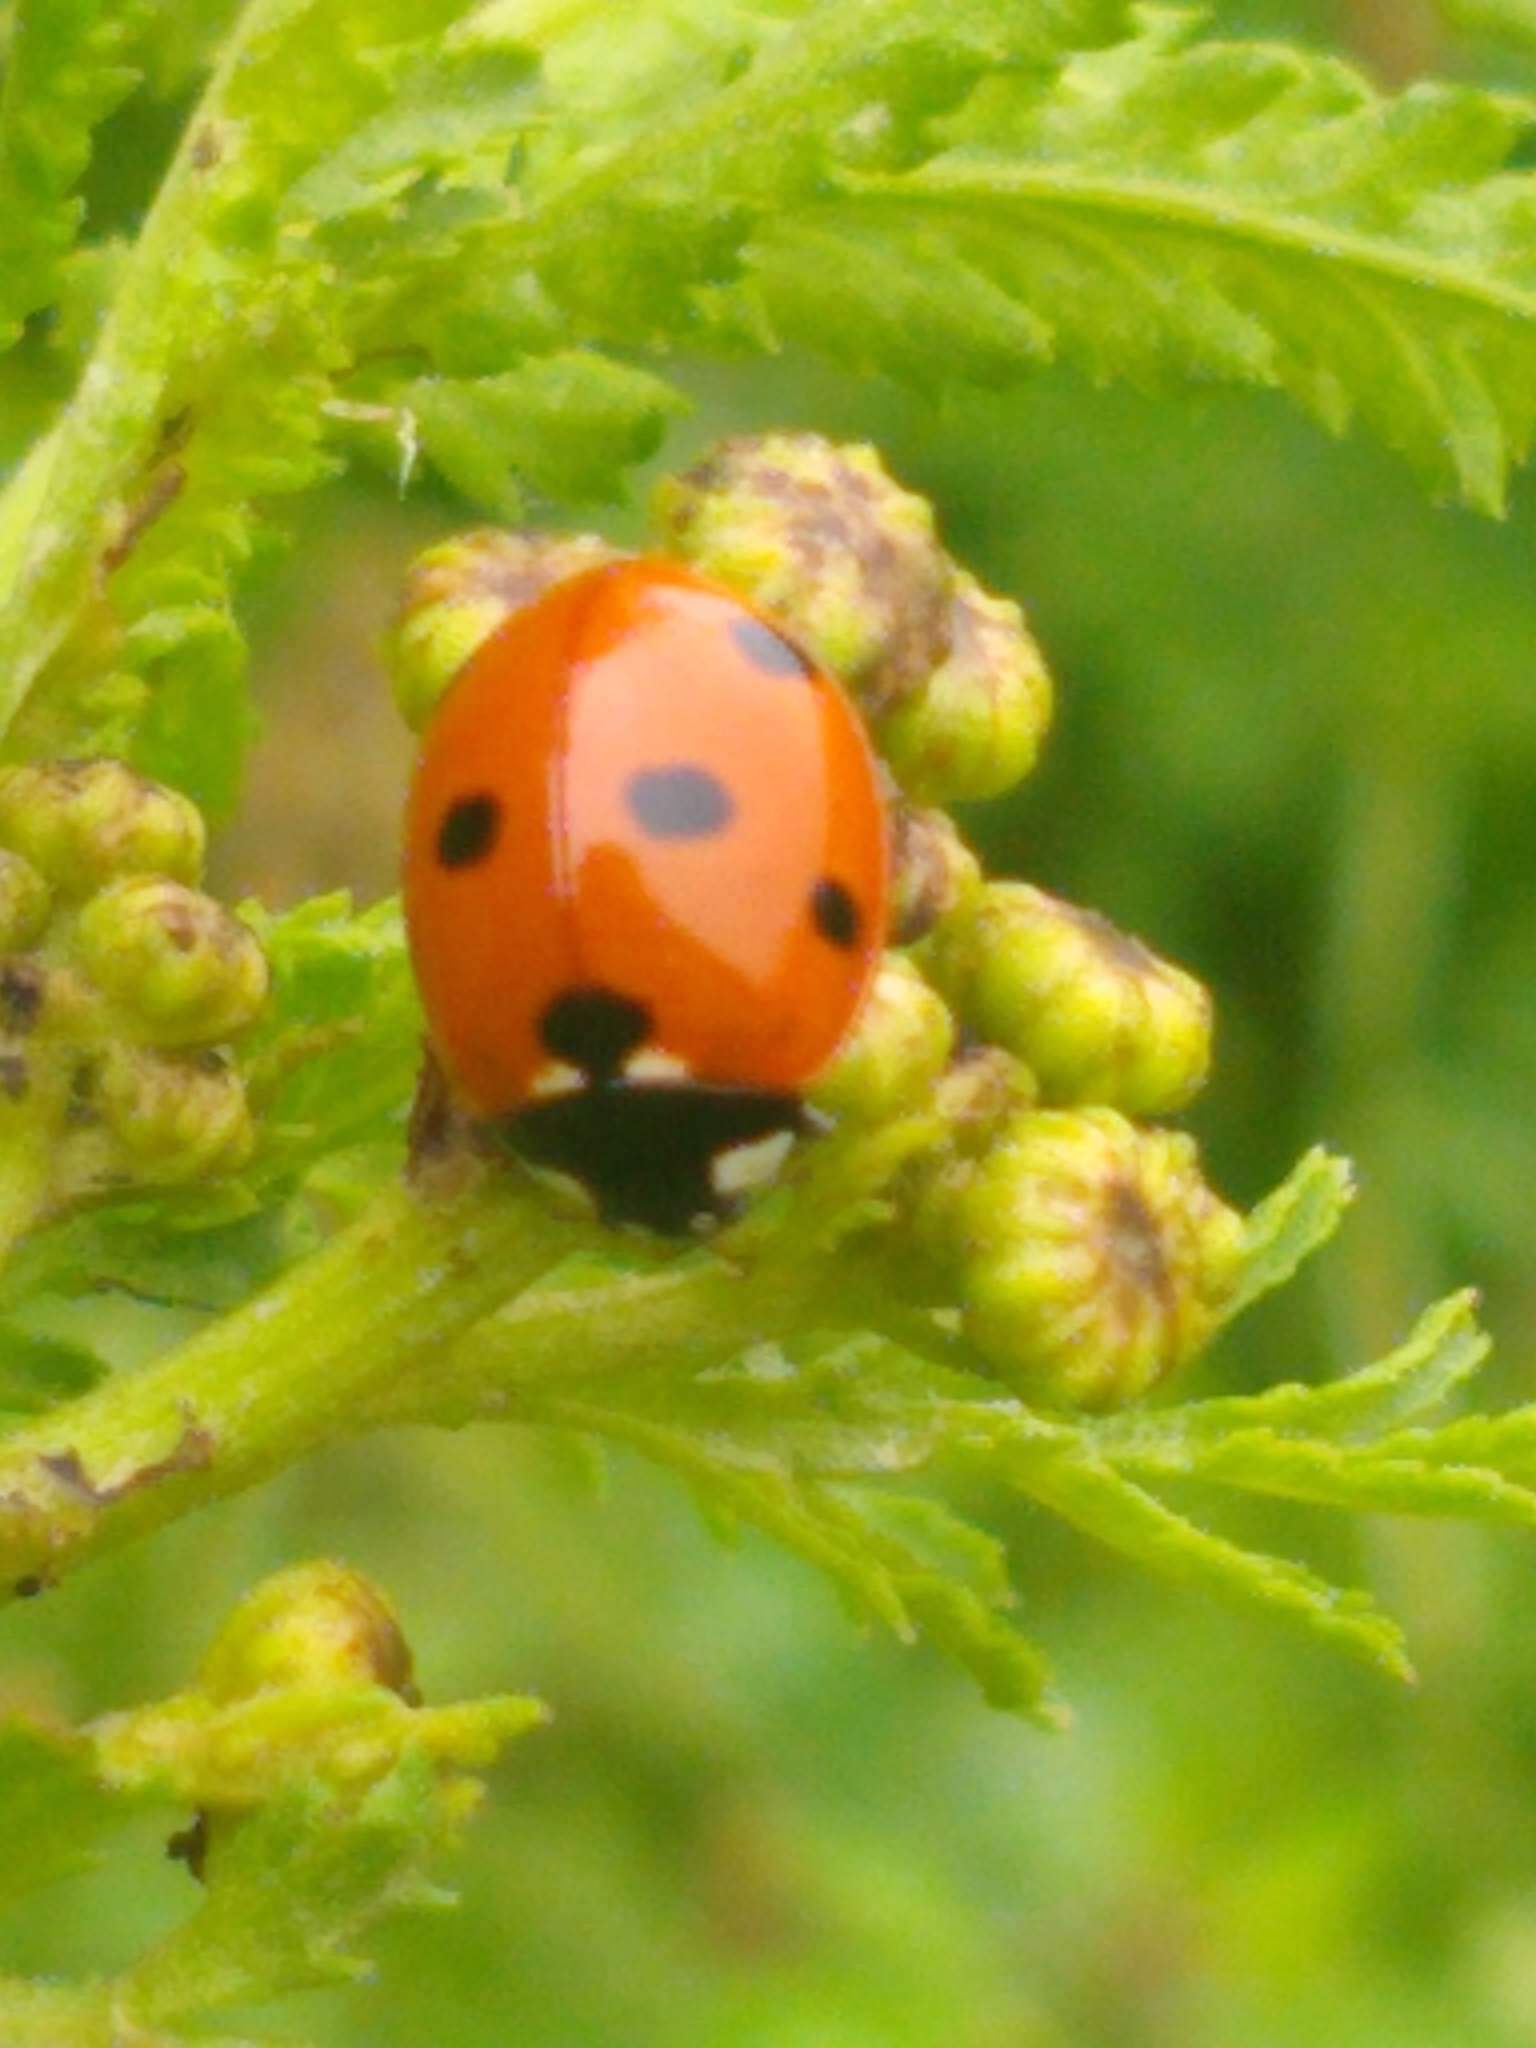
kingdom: Animalia
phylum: Arthropoda
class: Insecta
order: Coleoptera
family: Coccinellidae
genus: Coccinella
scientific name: Coccinella septempunctata
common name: Sevenspotted lady beetle
